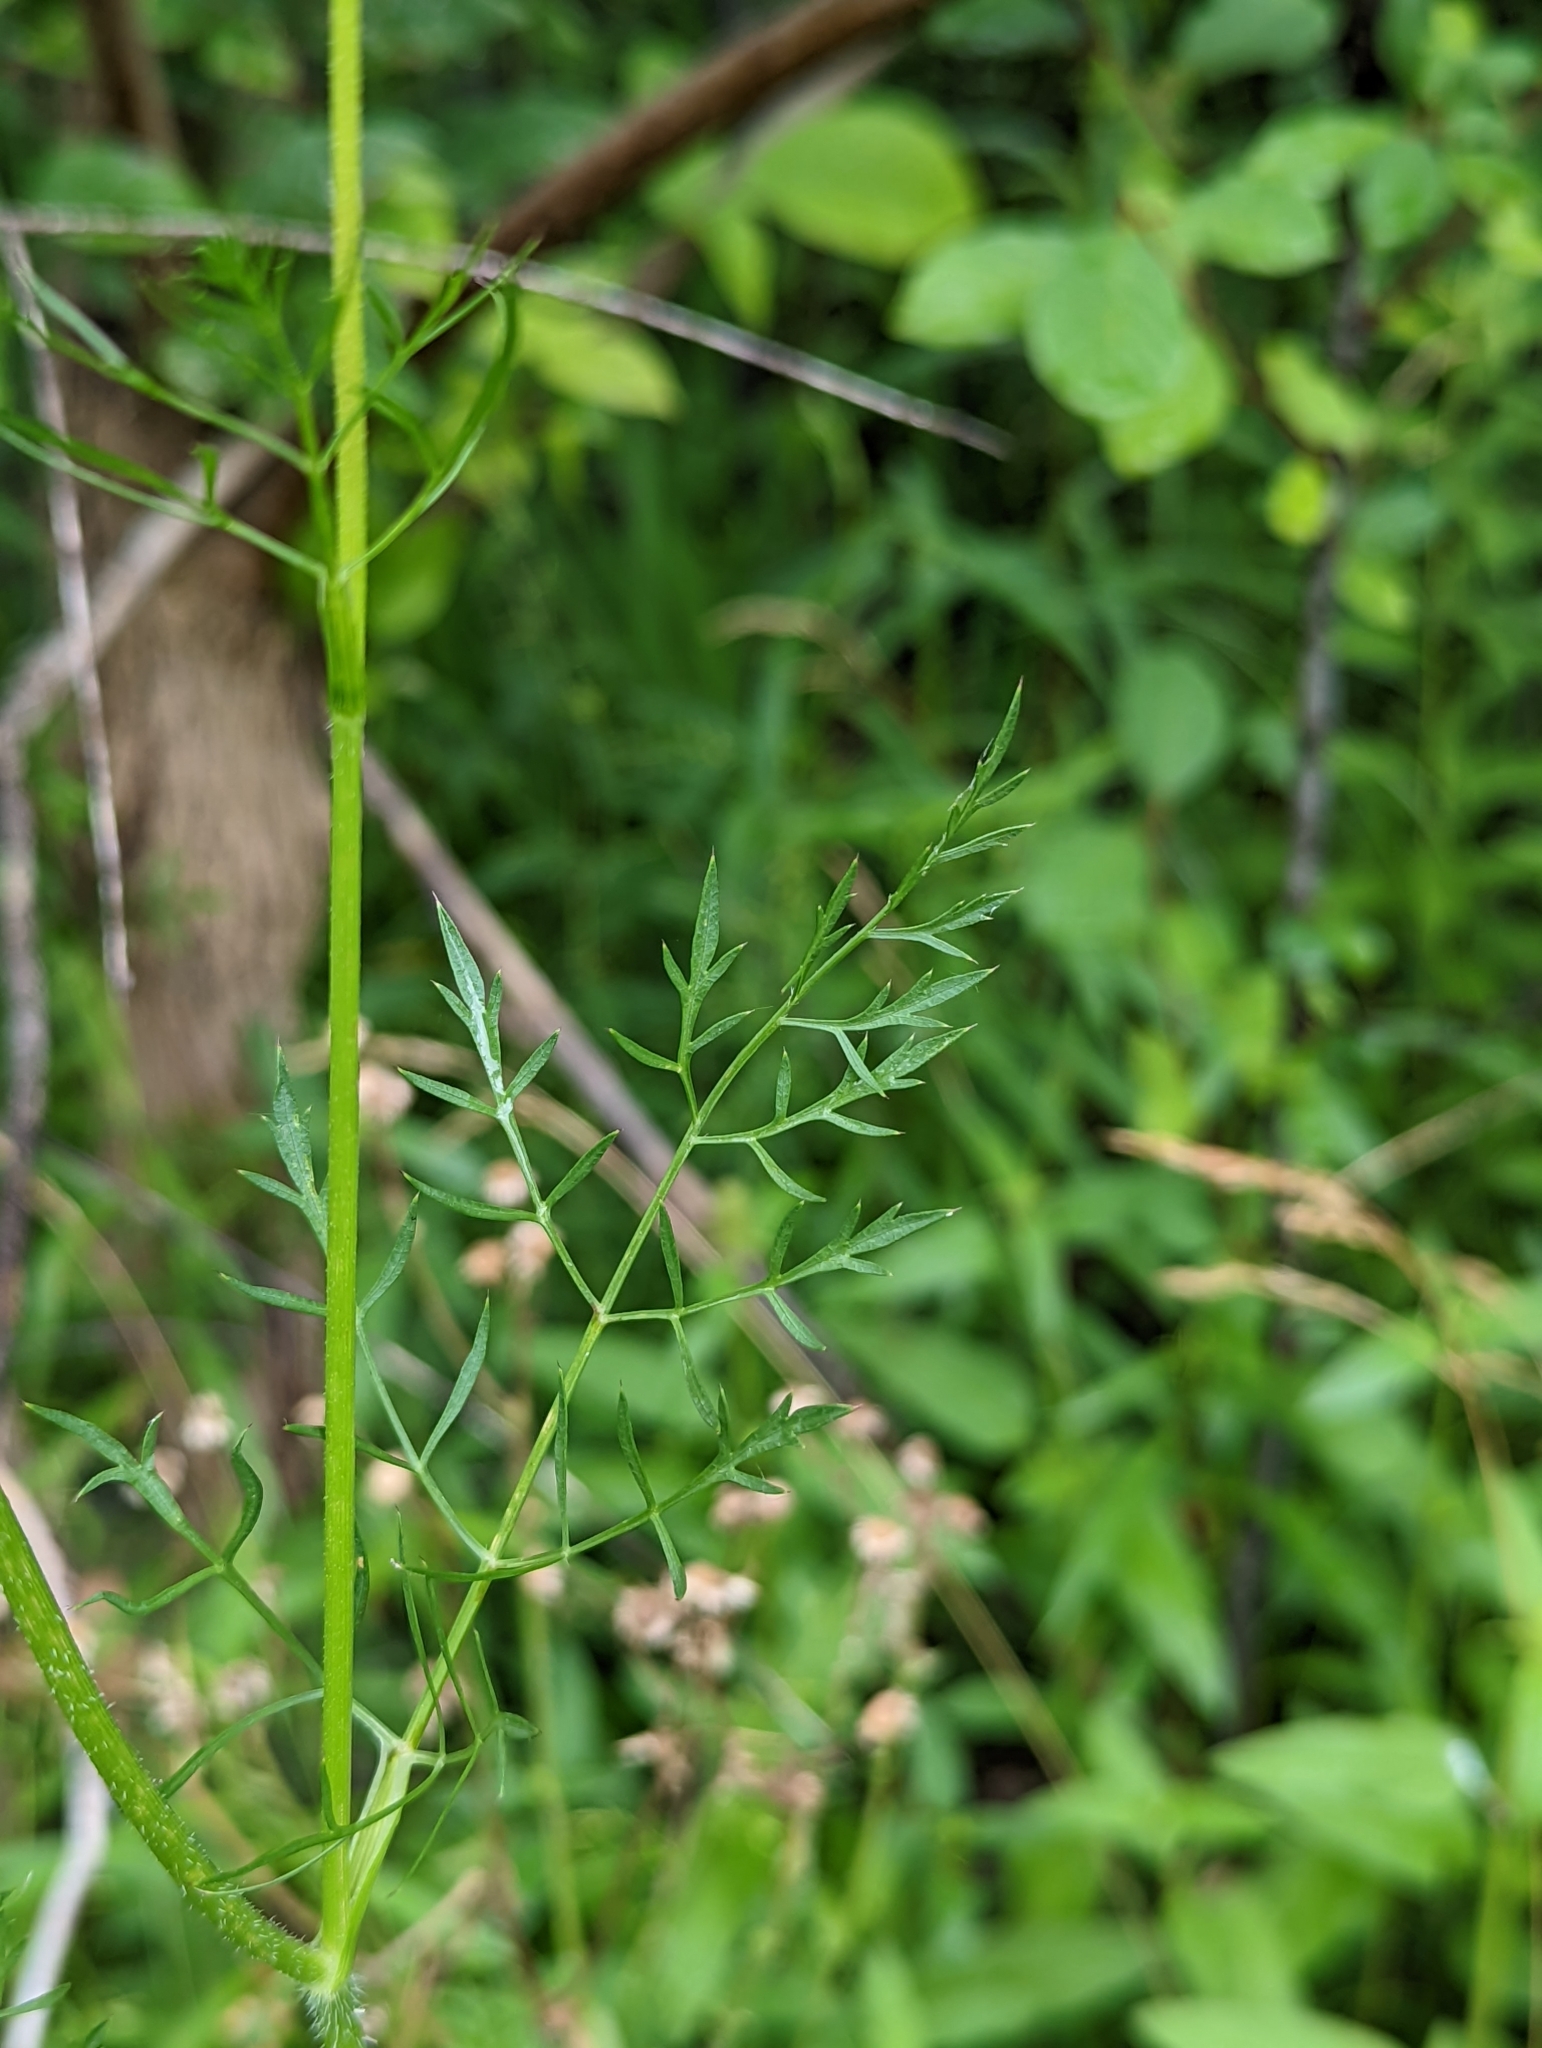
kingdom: Plantae
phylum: Tracheophyta
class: Magnoliopsida
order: Apiales
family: Apiaceae
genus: Daucus
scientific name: Daucus carota
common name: Wild carrot
